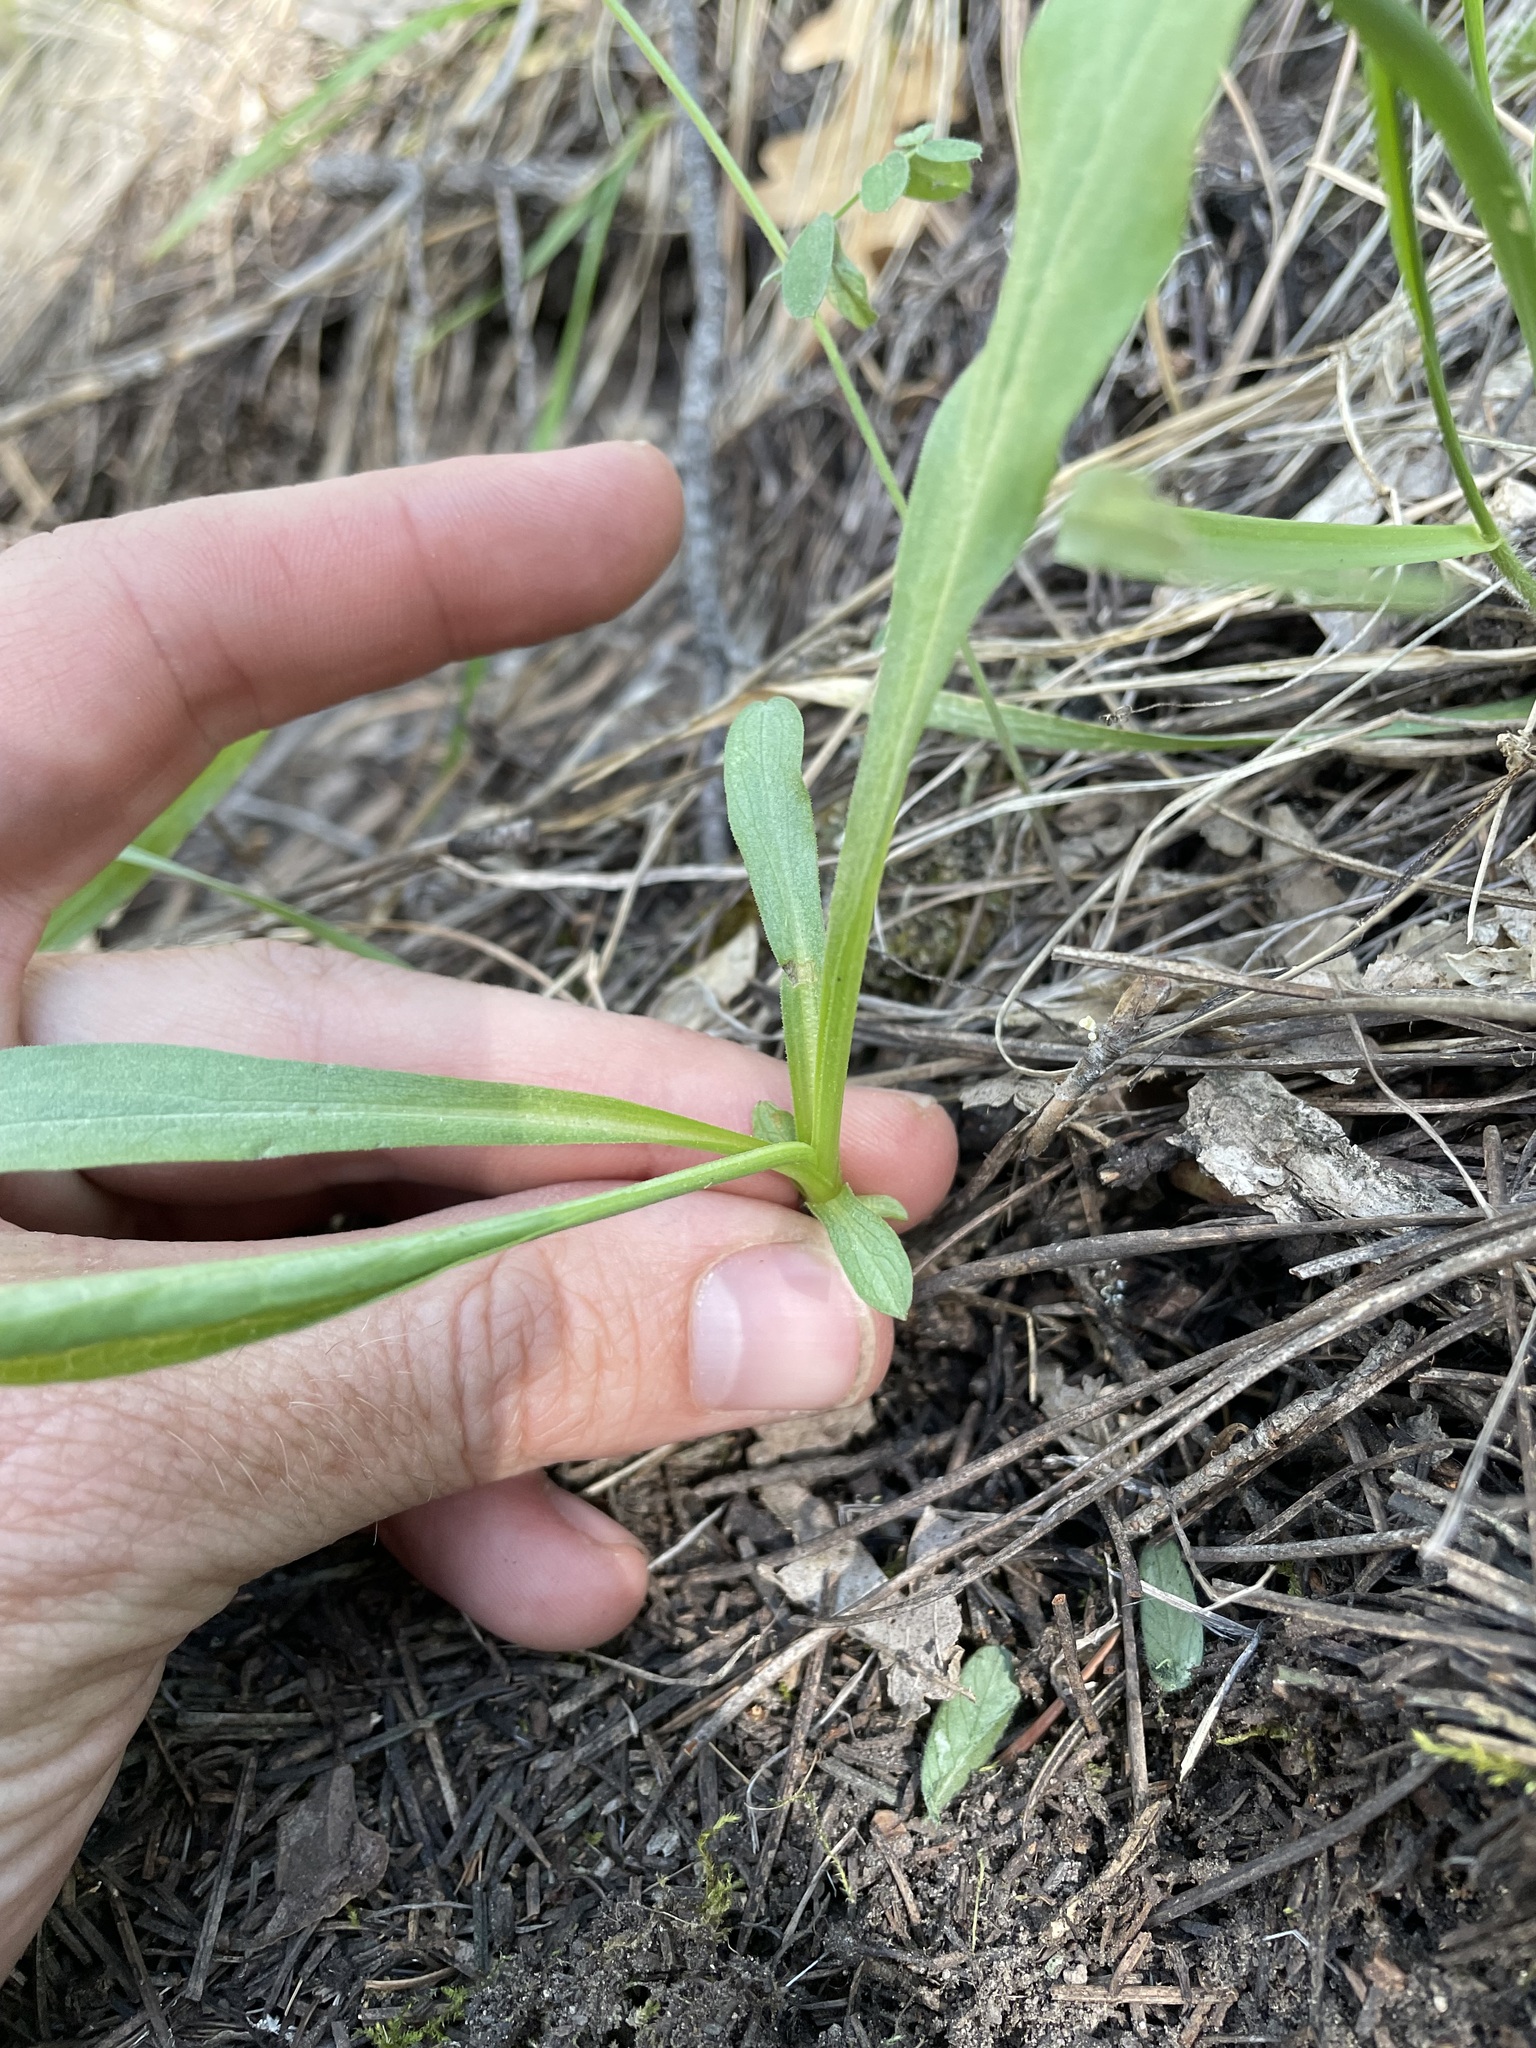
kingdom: Plantae
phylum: Tracheophyta
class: Magnoliopsida
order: Asterales
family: Asteraceae
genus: Hymenoxys
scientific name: Hymenoxys hoopesii
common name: Orange-sneezeweed
